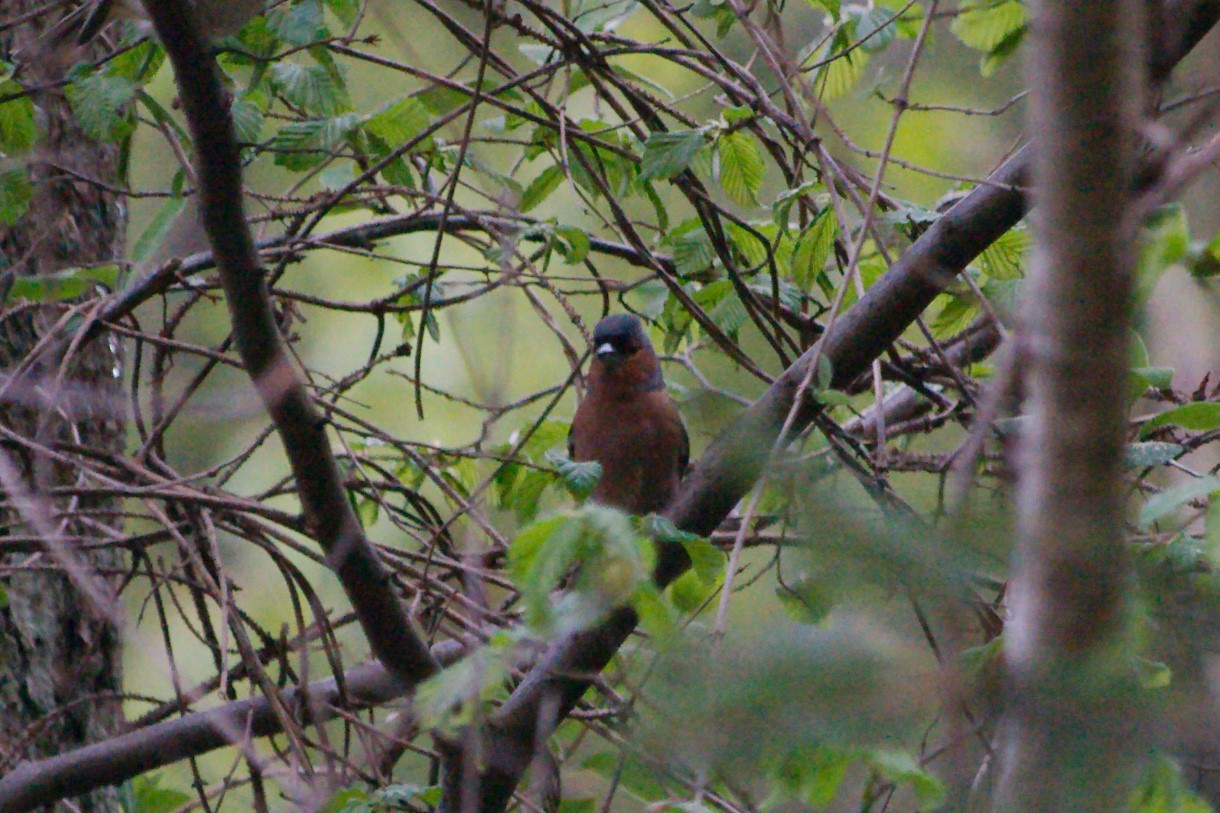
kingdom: Animalia
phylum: Chordata
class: Aves
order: Passeriformes
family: Fringillidae
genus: Fringilla
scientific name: Fringilla coelebs
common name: Common chaffinch
